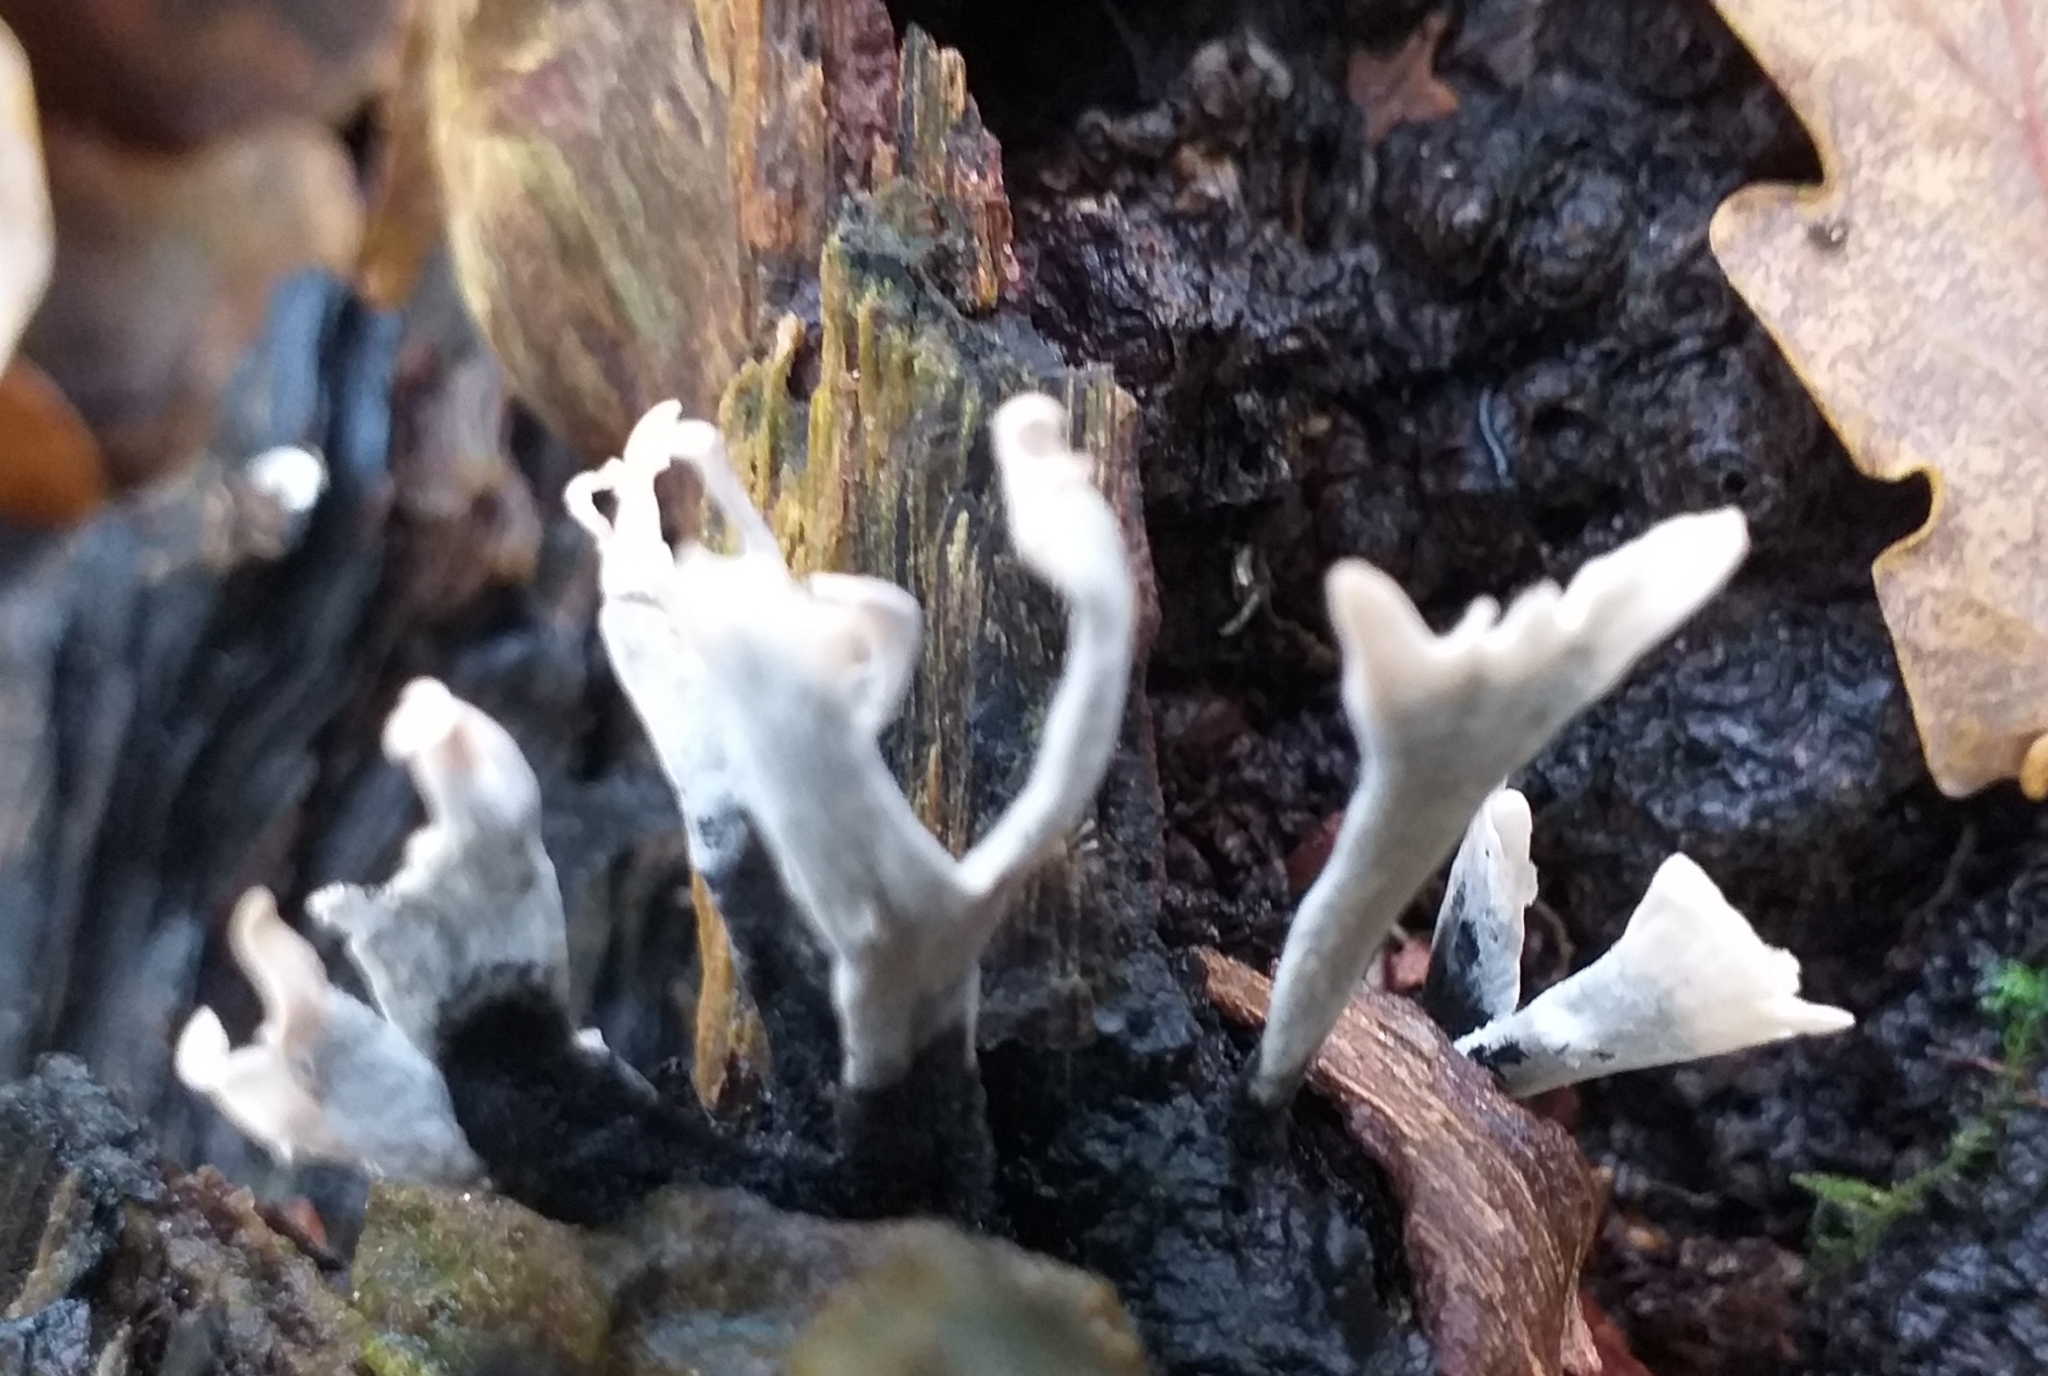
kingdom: Fungi
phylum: Ascomycota
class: Sordariomycetes
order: Xylariales
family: Xylariaceae
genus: Xylaria
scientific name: Xylaria hypoxylon
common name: Candle-snuff fungus
